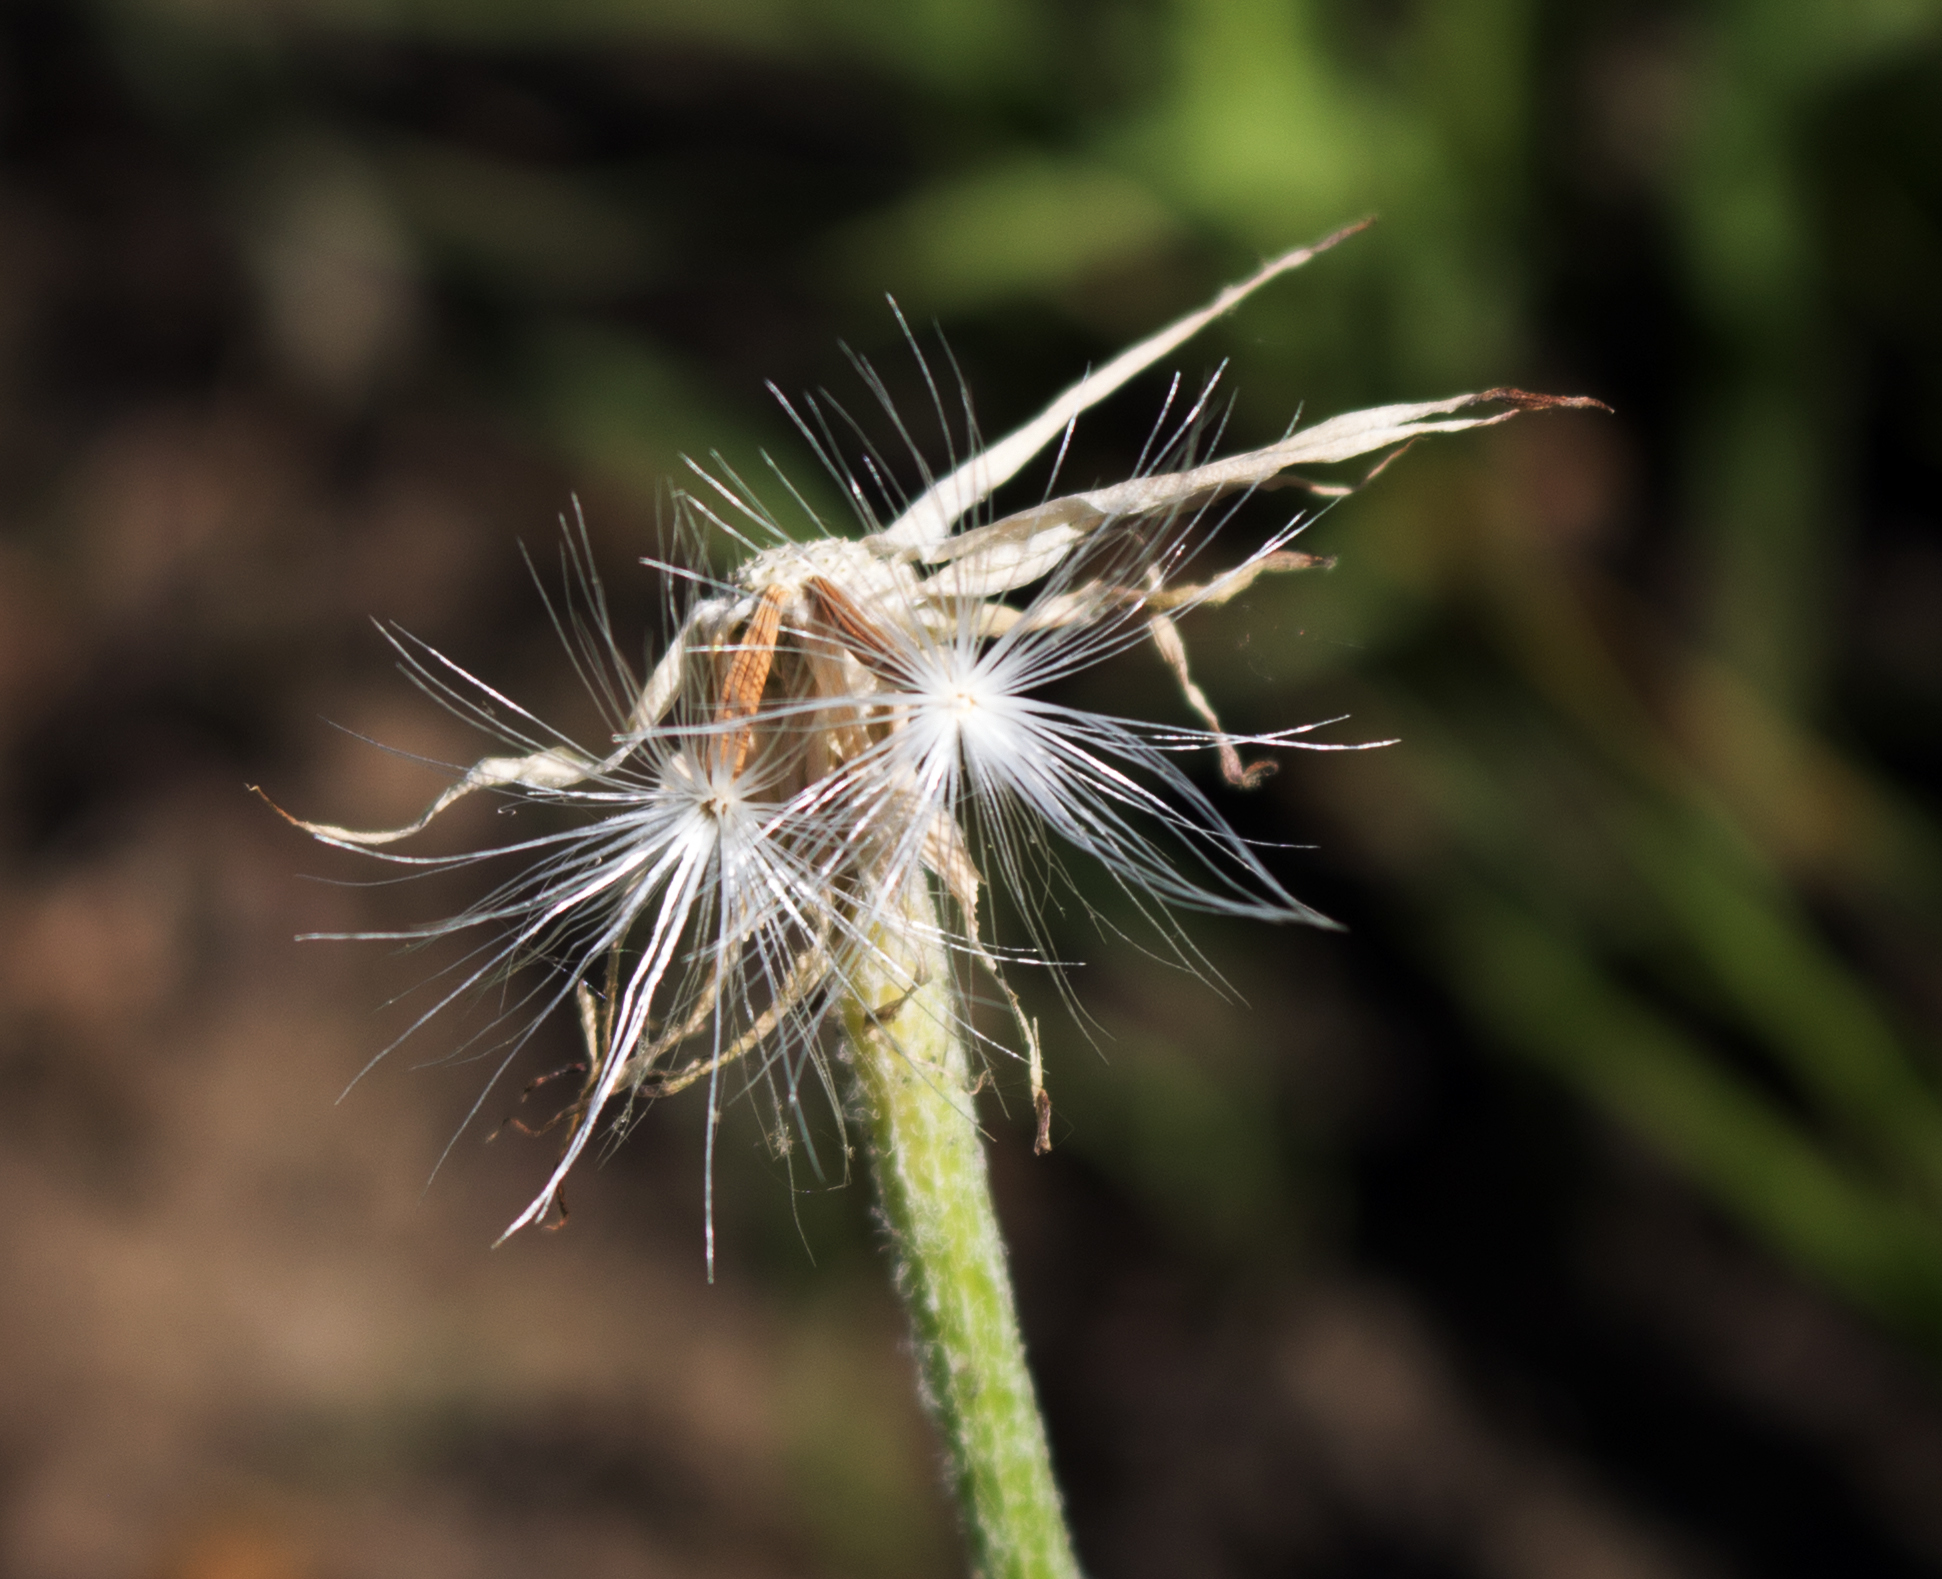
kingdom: Plantae
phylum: Tracheophyta
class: Magnoliopsida
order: Asterales
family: Asteraceae
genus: Microseris
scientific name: Microseris cuspidata
